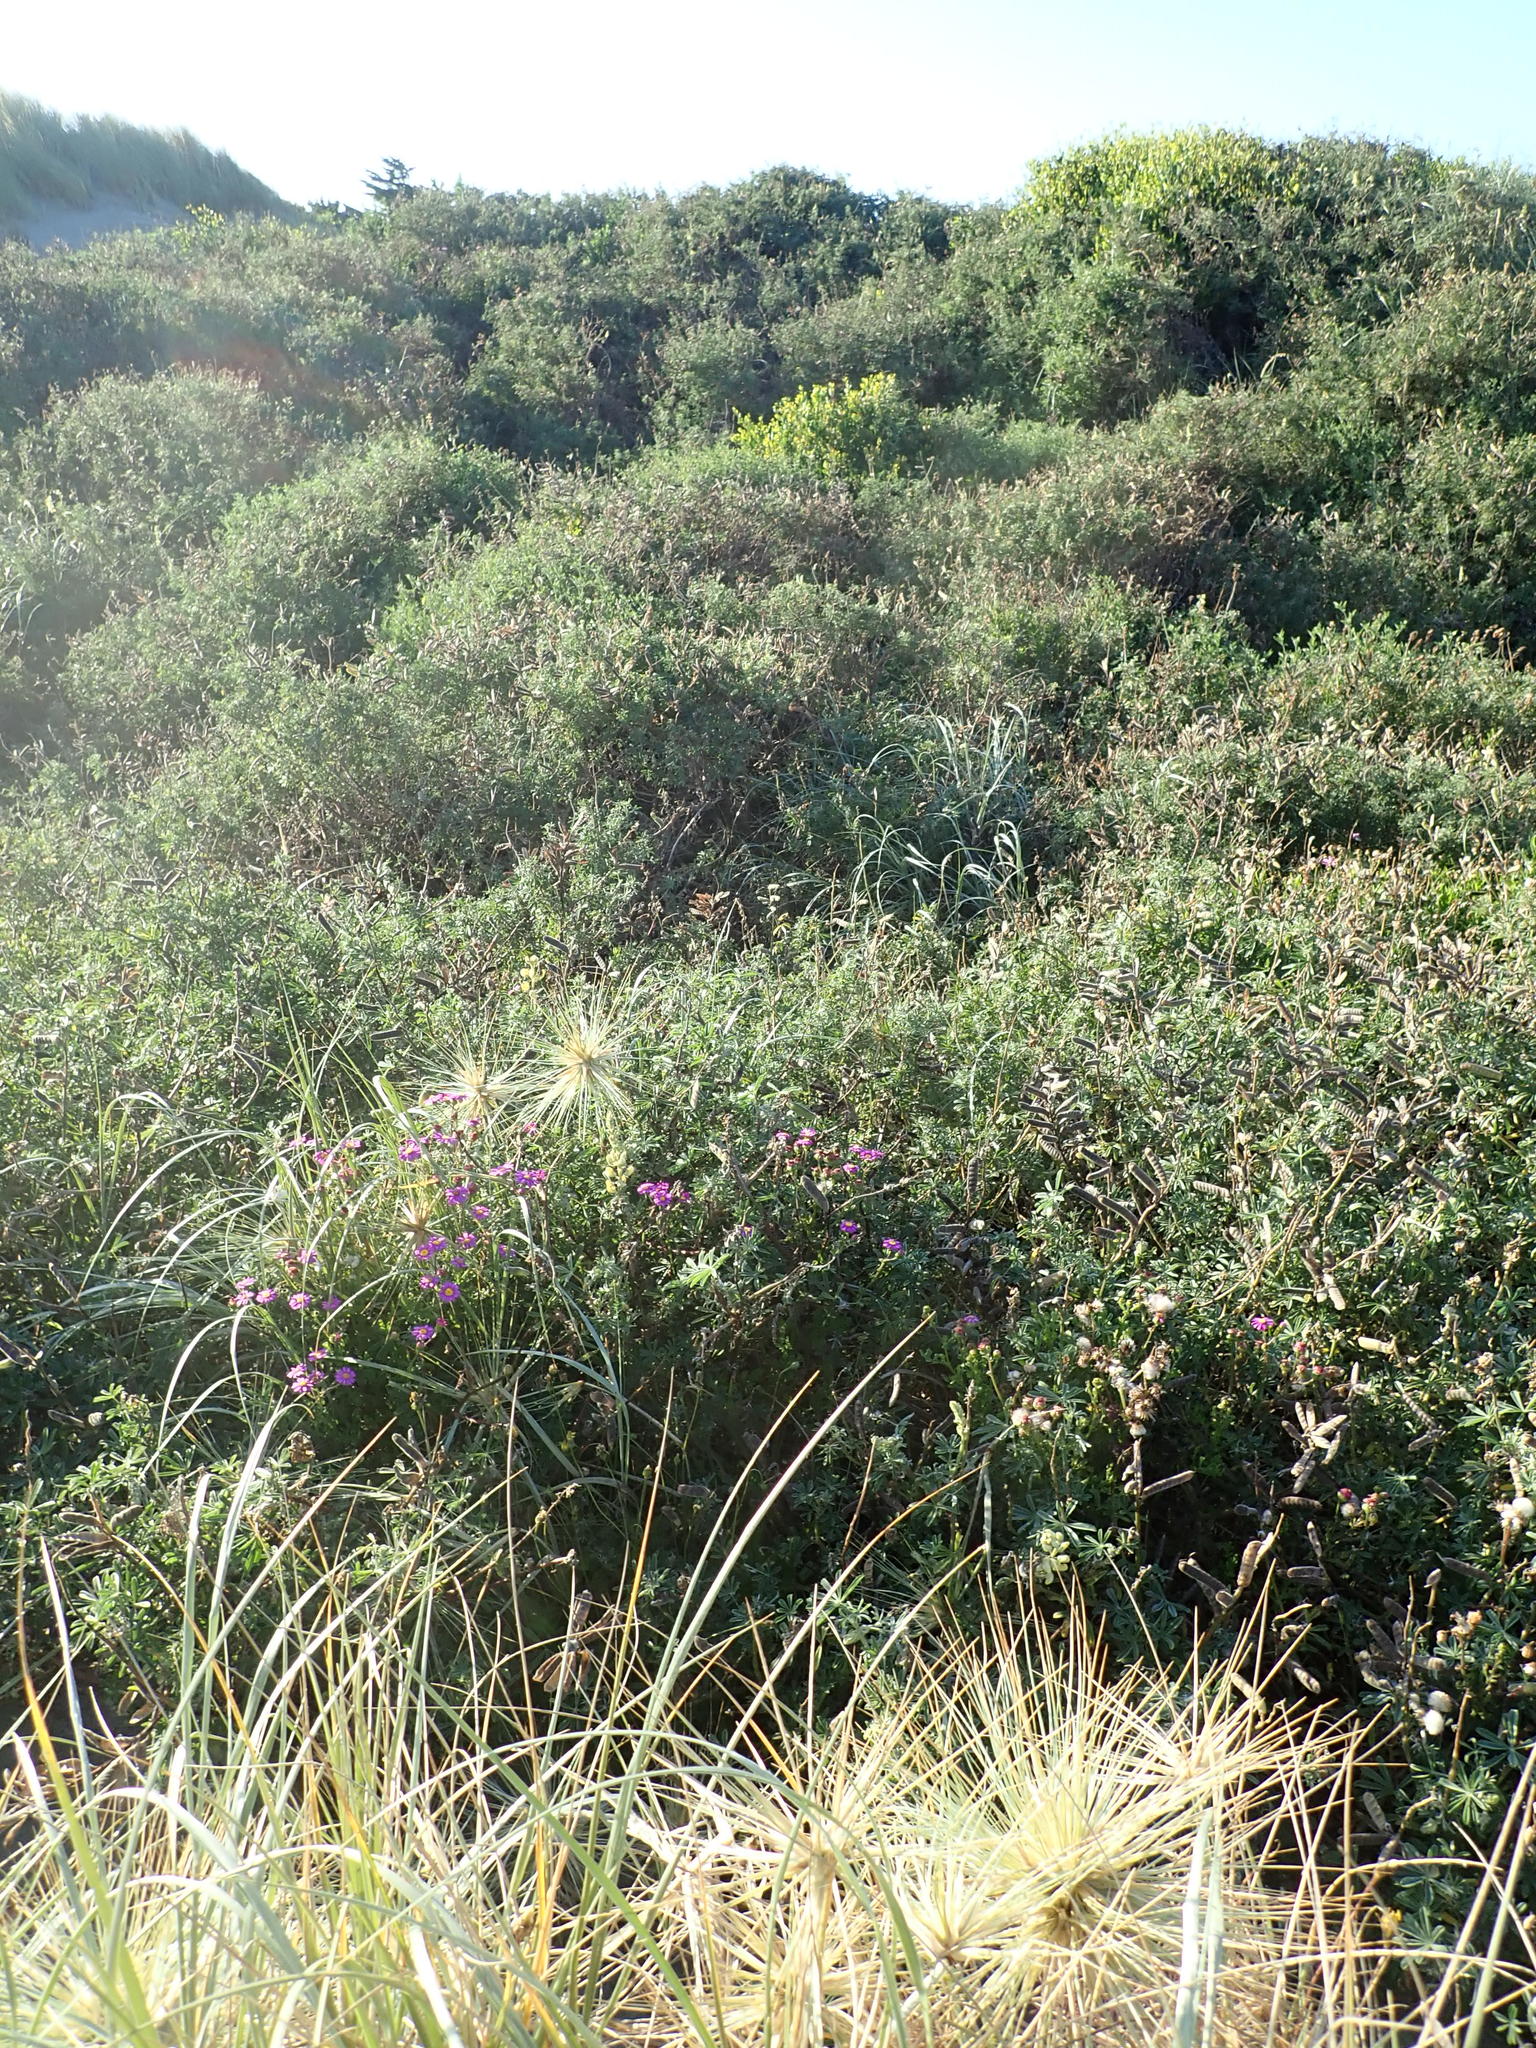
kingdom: Plantae
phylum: Tracheophyta
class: Magnoliopsida
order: Fabales
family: Fabaceae
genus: Lupinus
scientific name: Lupinus arboreus
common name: Yellow bush lupine
